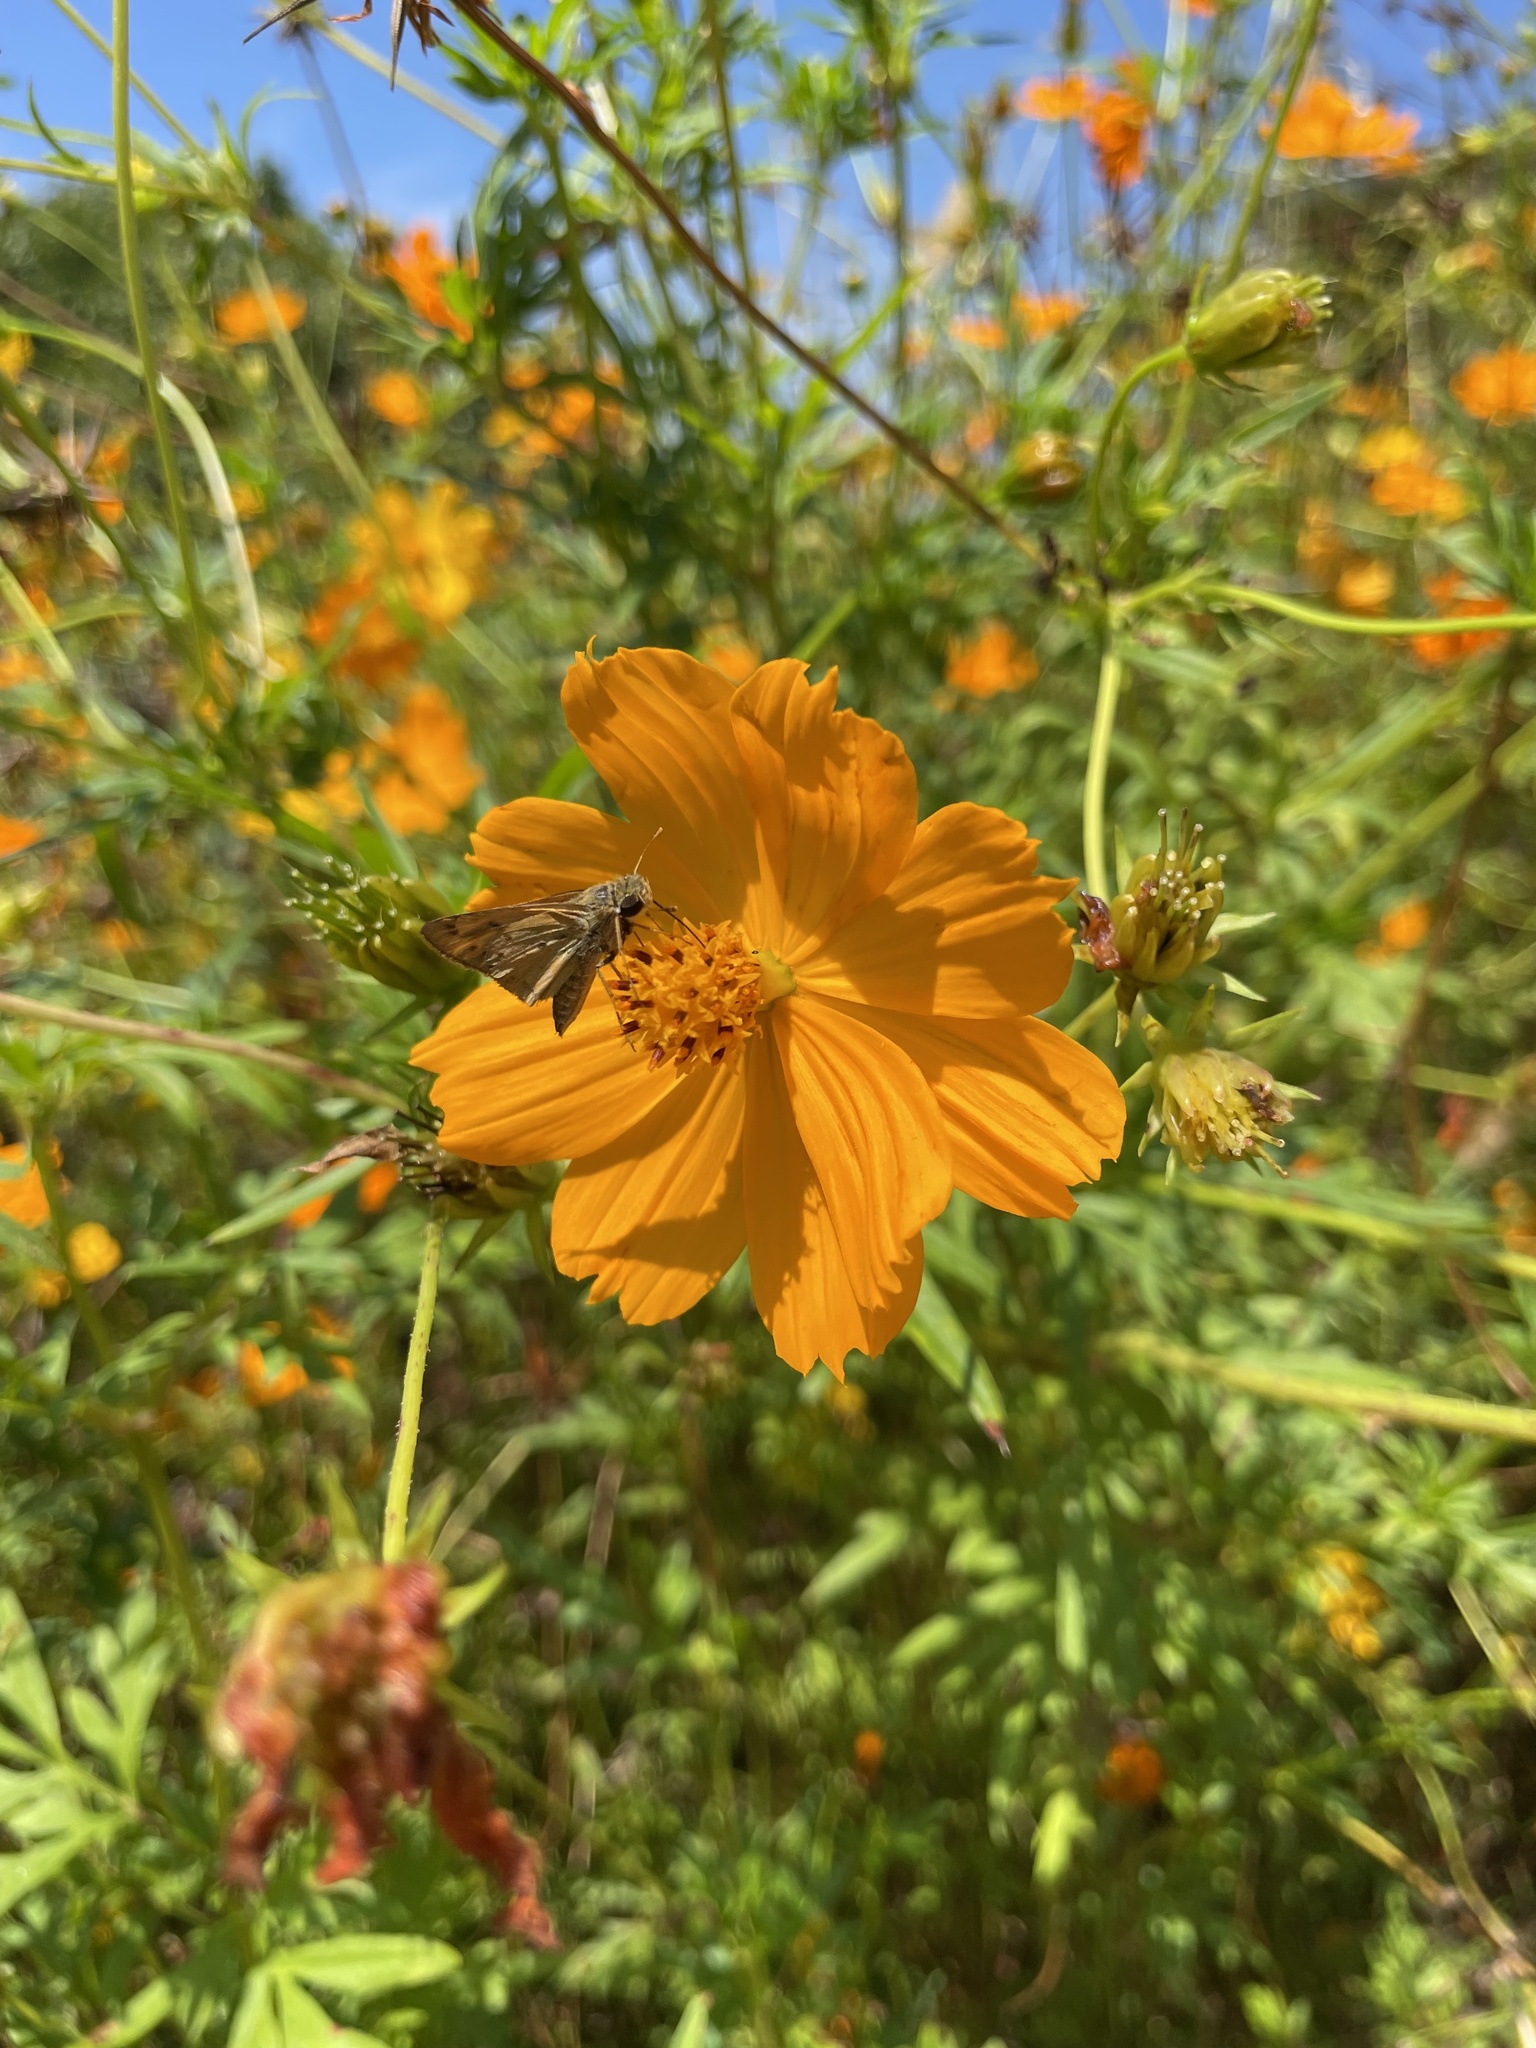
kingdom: Animalia
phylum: Arthropoda
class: Insecta
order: Lepidoptera
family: Hesperiidae
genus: Hylephila
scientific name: Hylephila phyleus
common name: Fiery skipper
